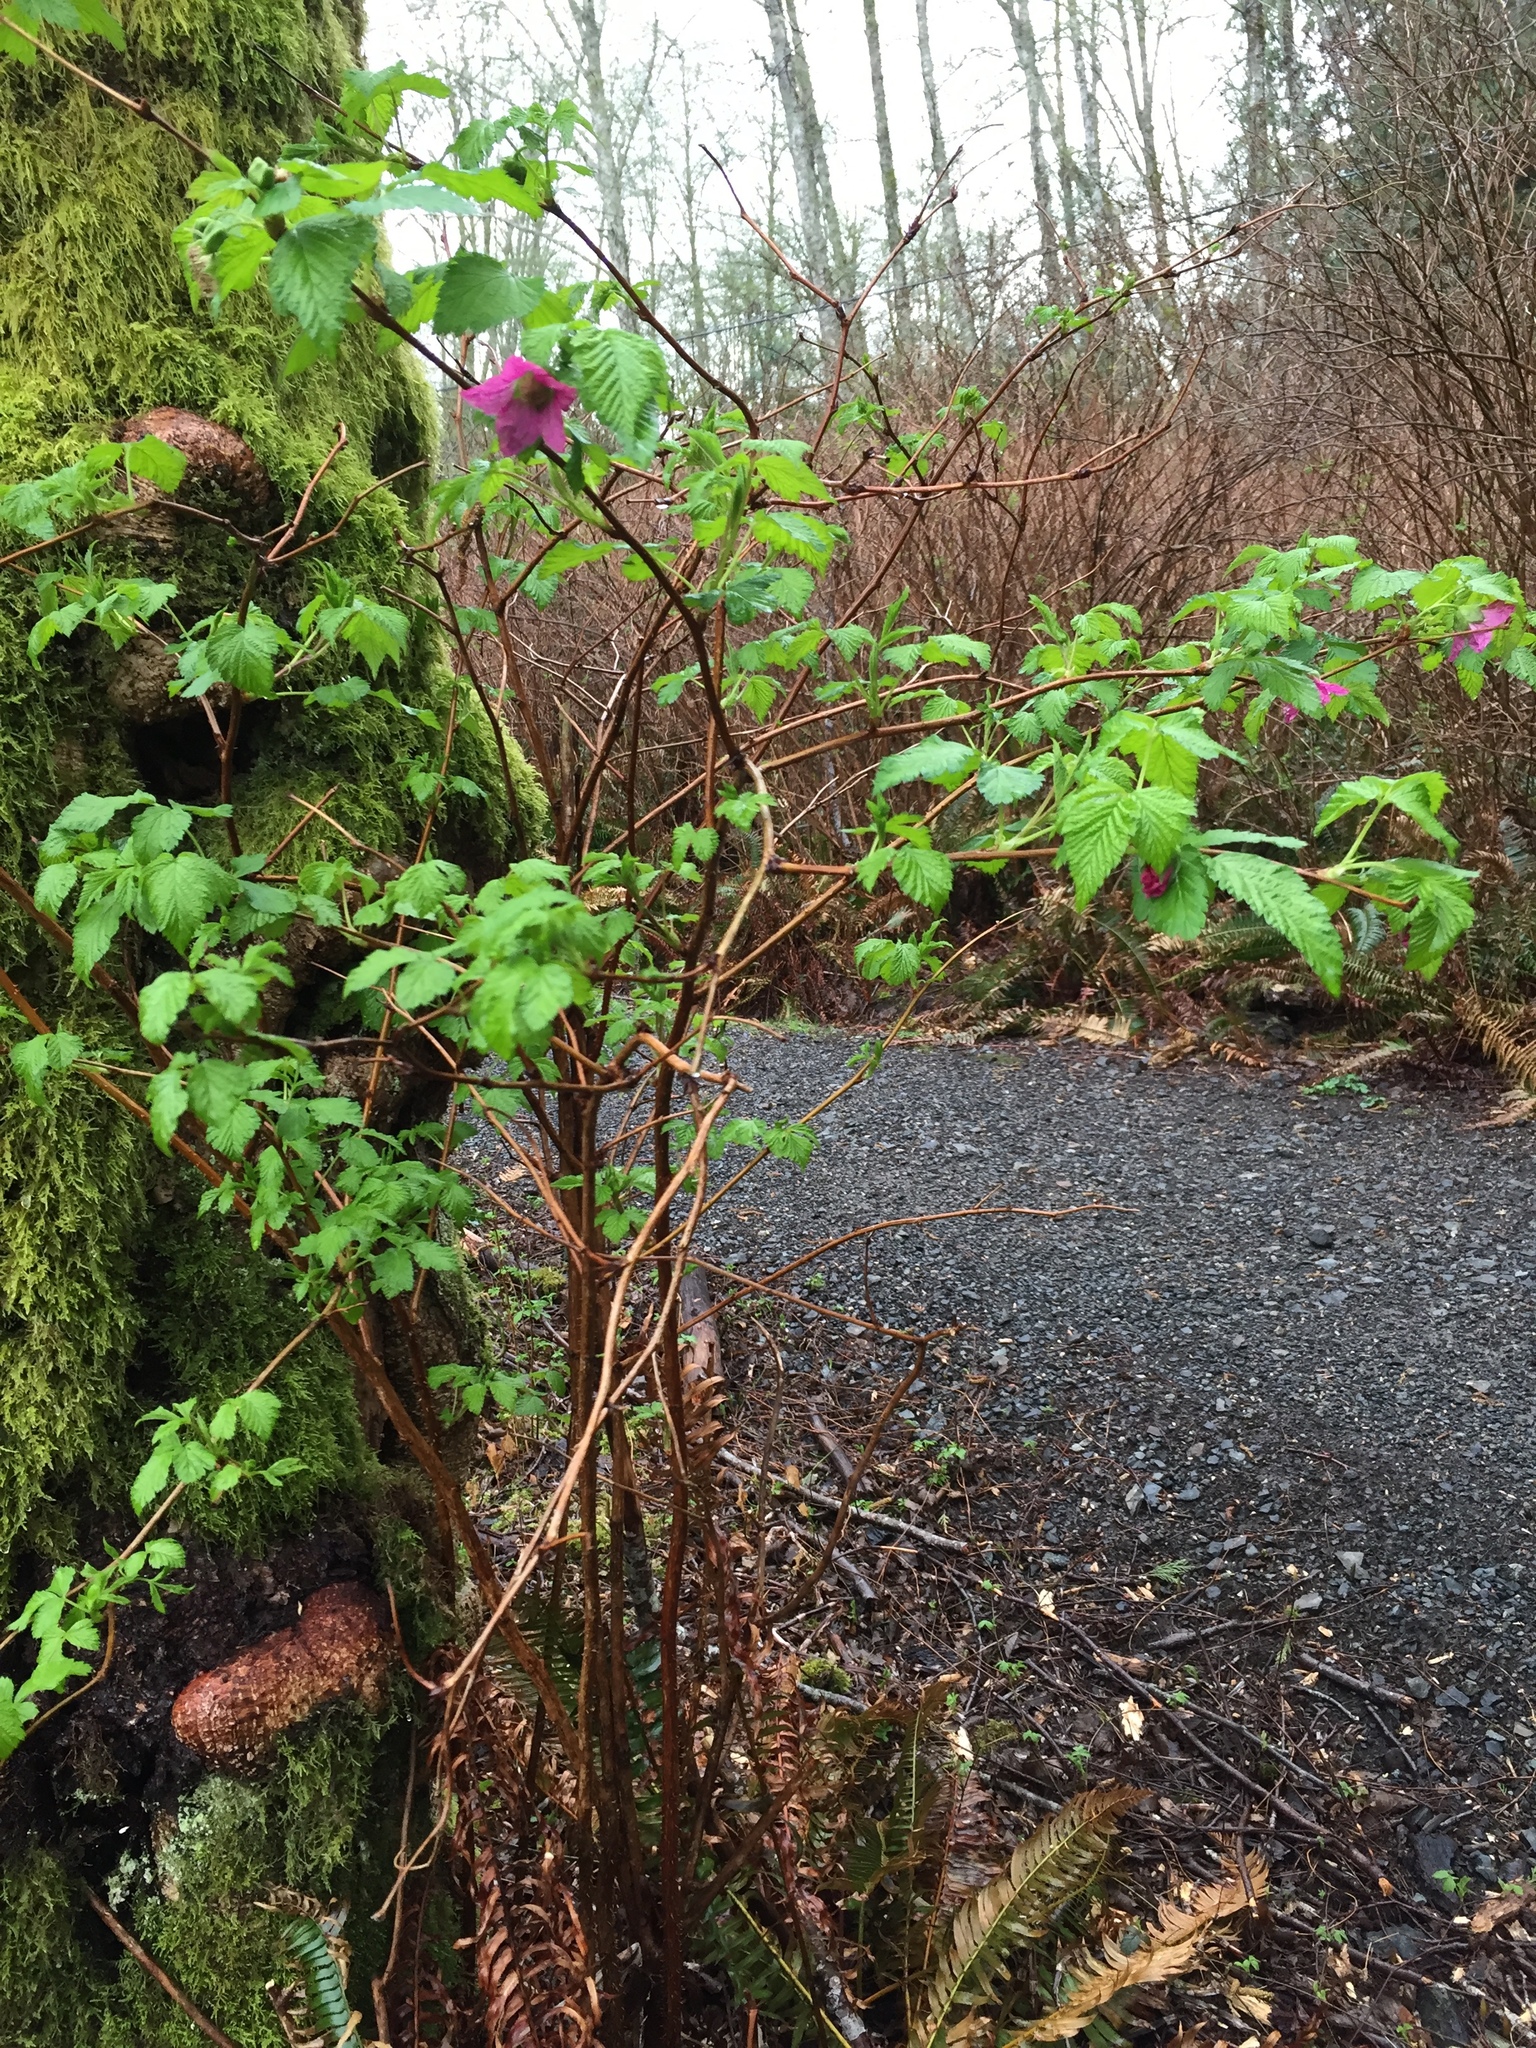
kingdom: Plantae
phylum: Tracheophyta
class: Magnoliopsida
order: Rosales
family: Rosaceae
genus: Rubus
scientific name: Rubus spectabilis
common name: Salmonberry
